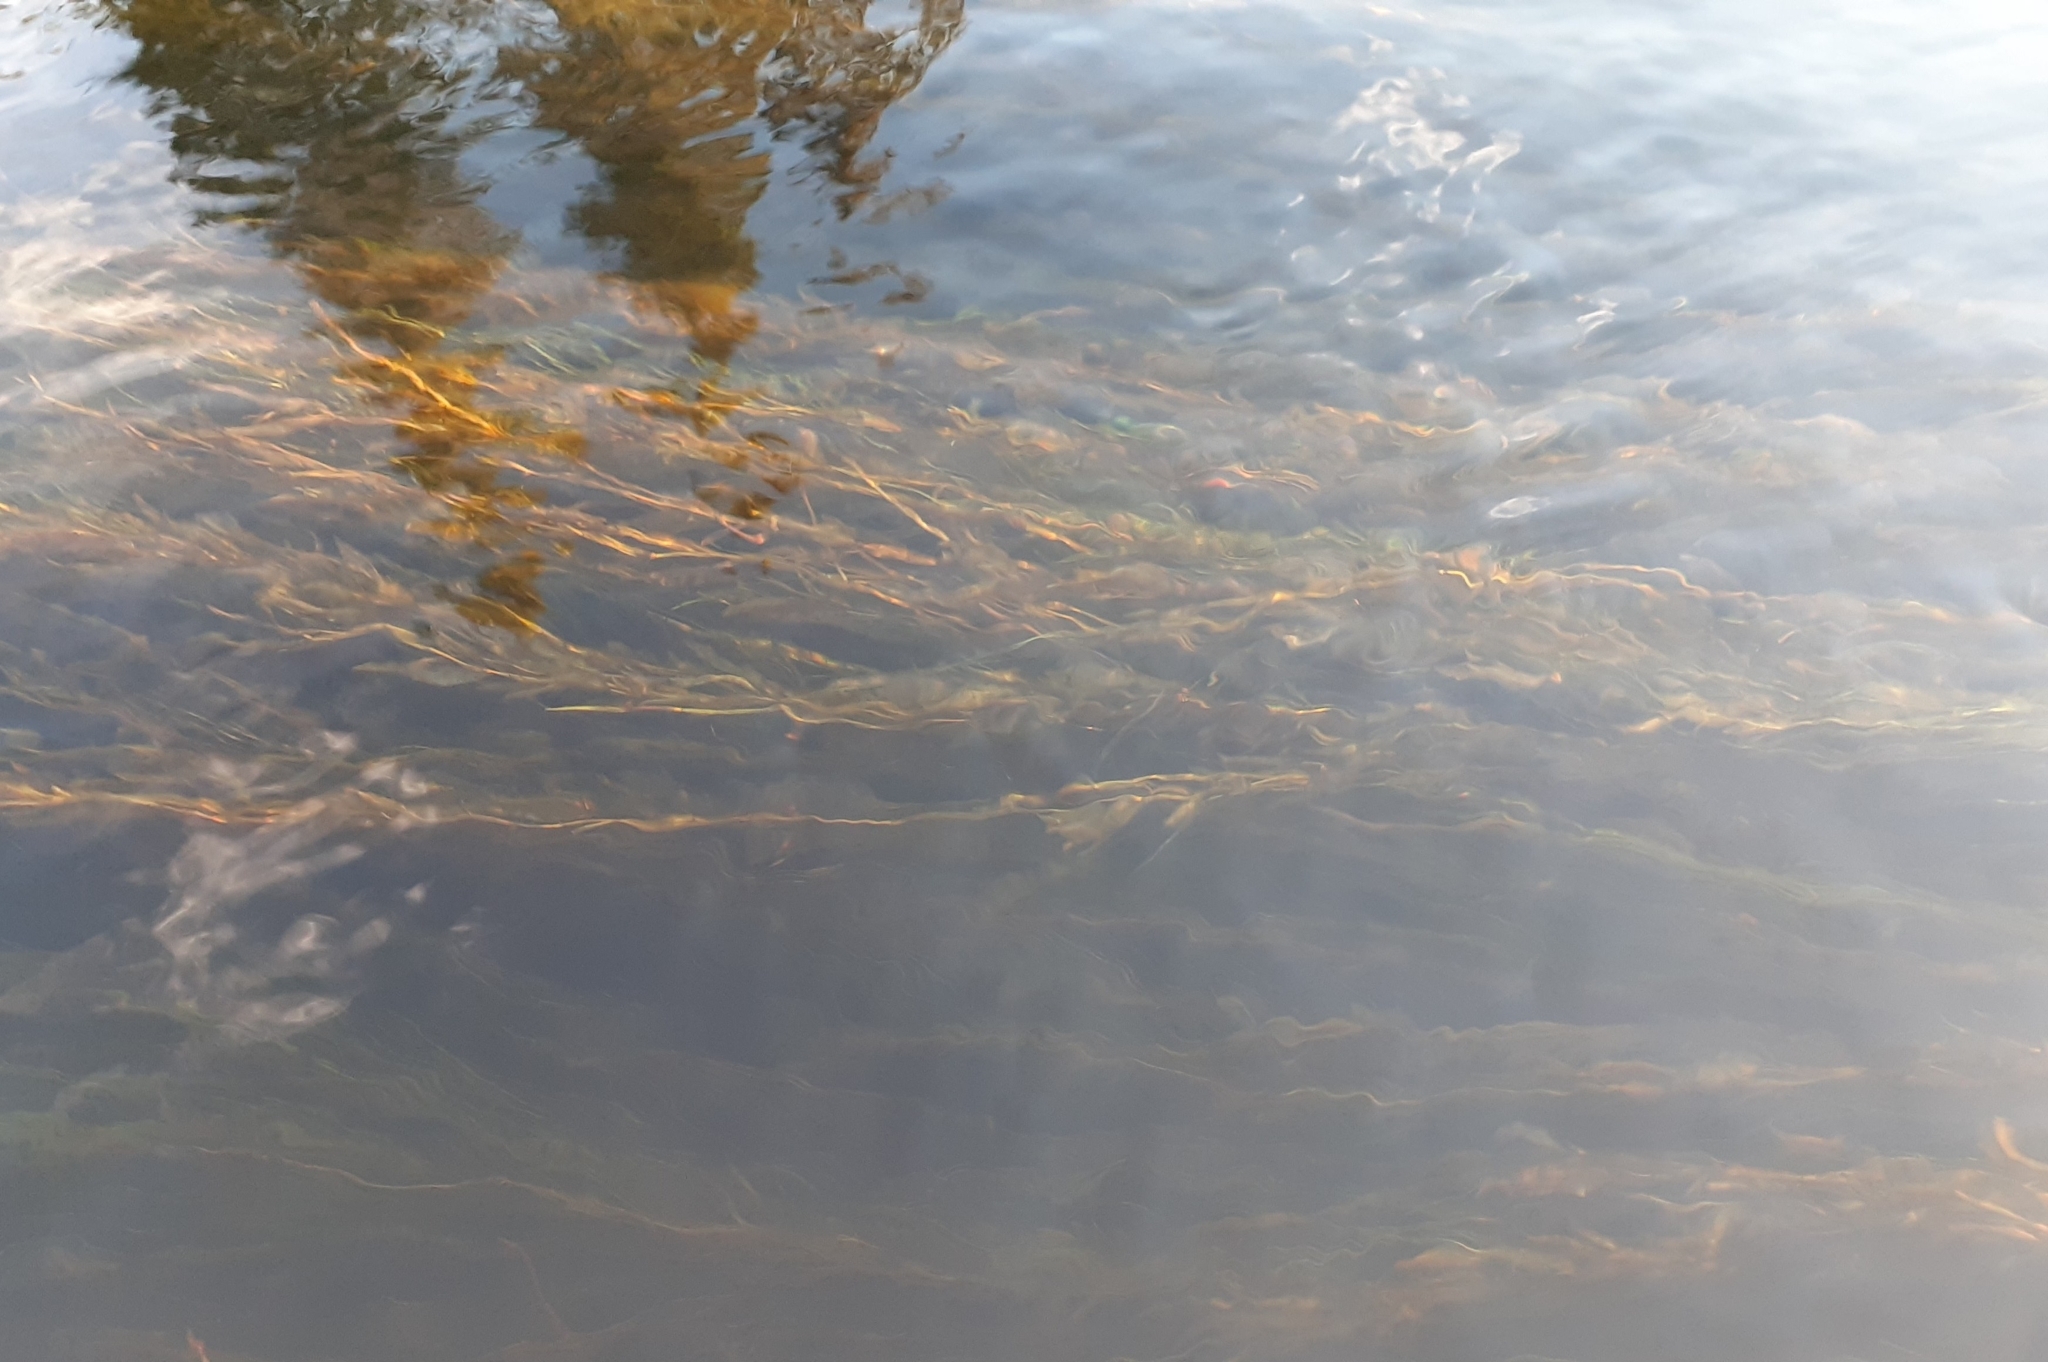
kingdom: Plantae
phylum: Tracheophyta
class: Liliopsida
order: Alismatales
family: Potamogetonaceae
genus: Potamogeton
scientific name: Potamogeton gramineus
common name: Various-leaved pondweed
